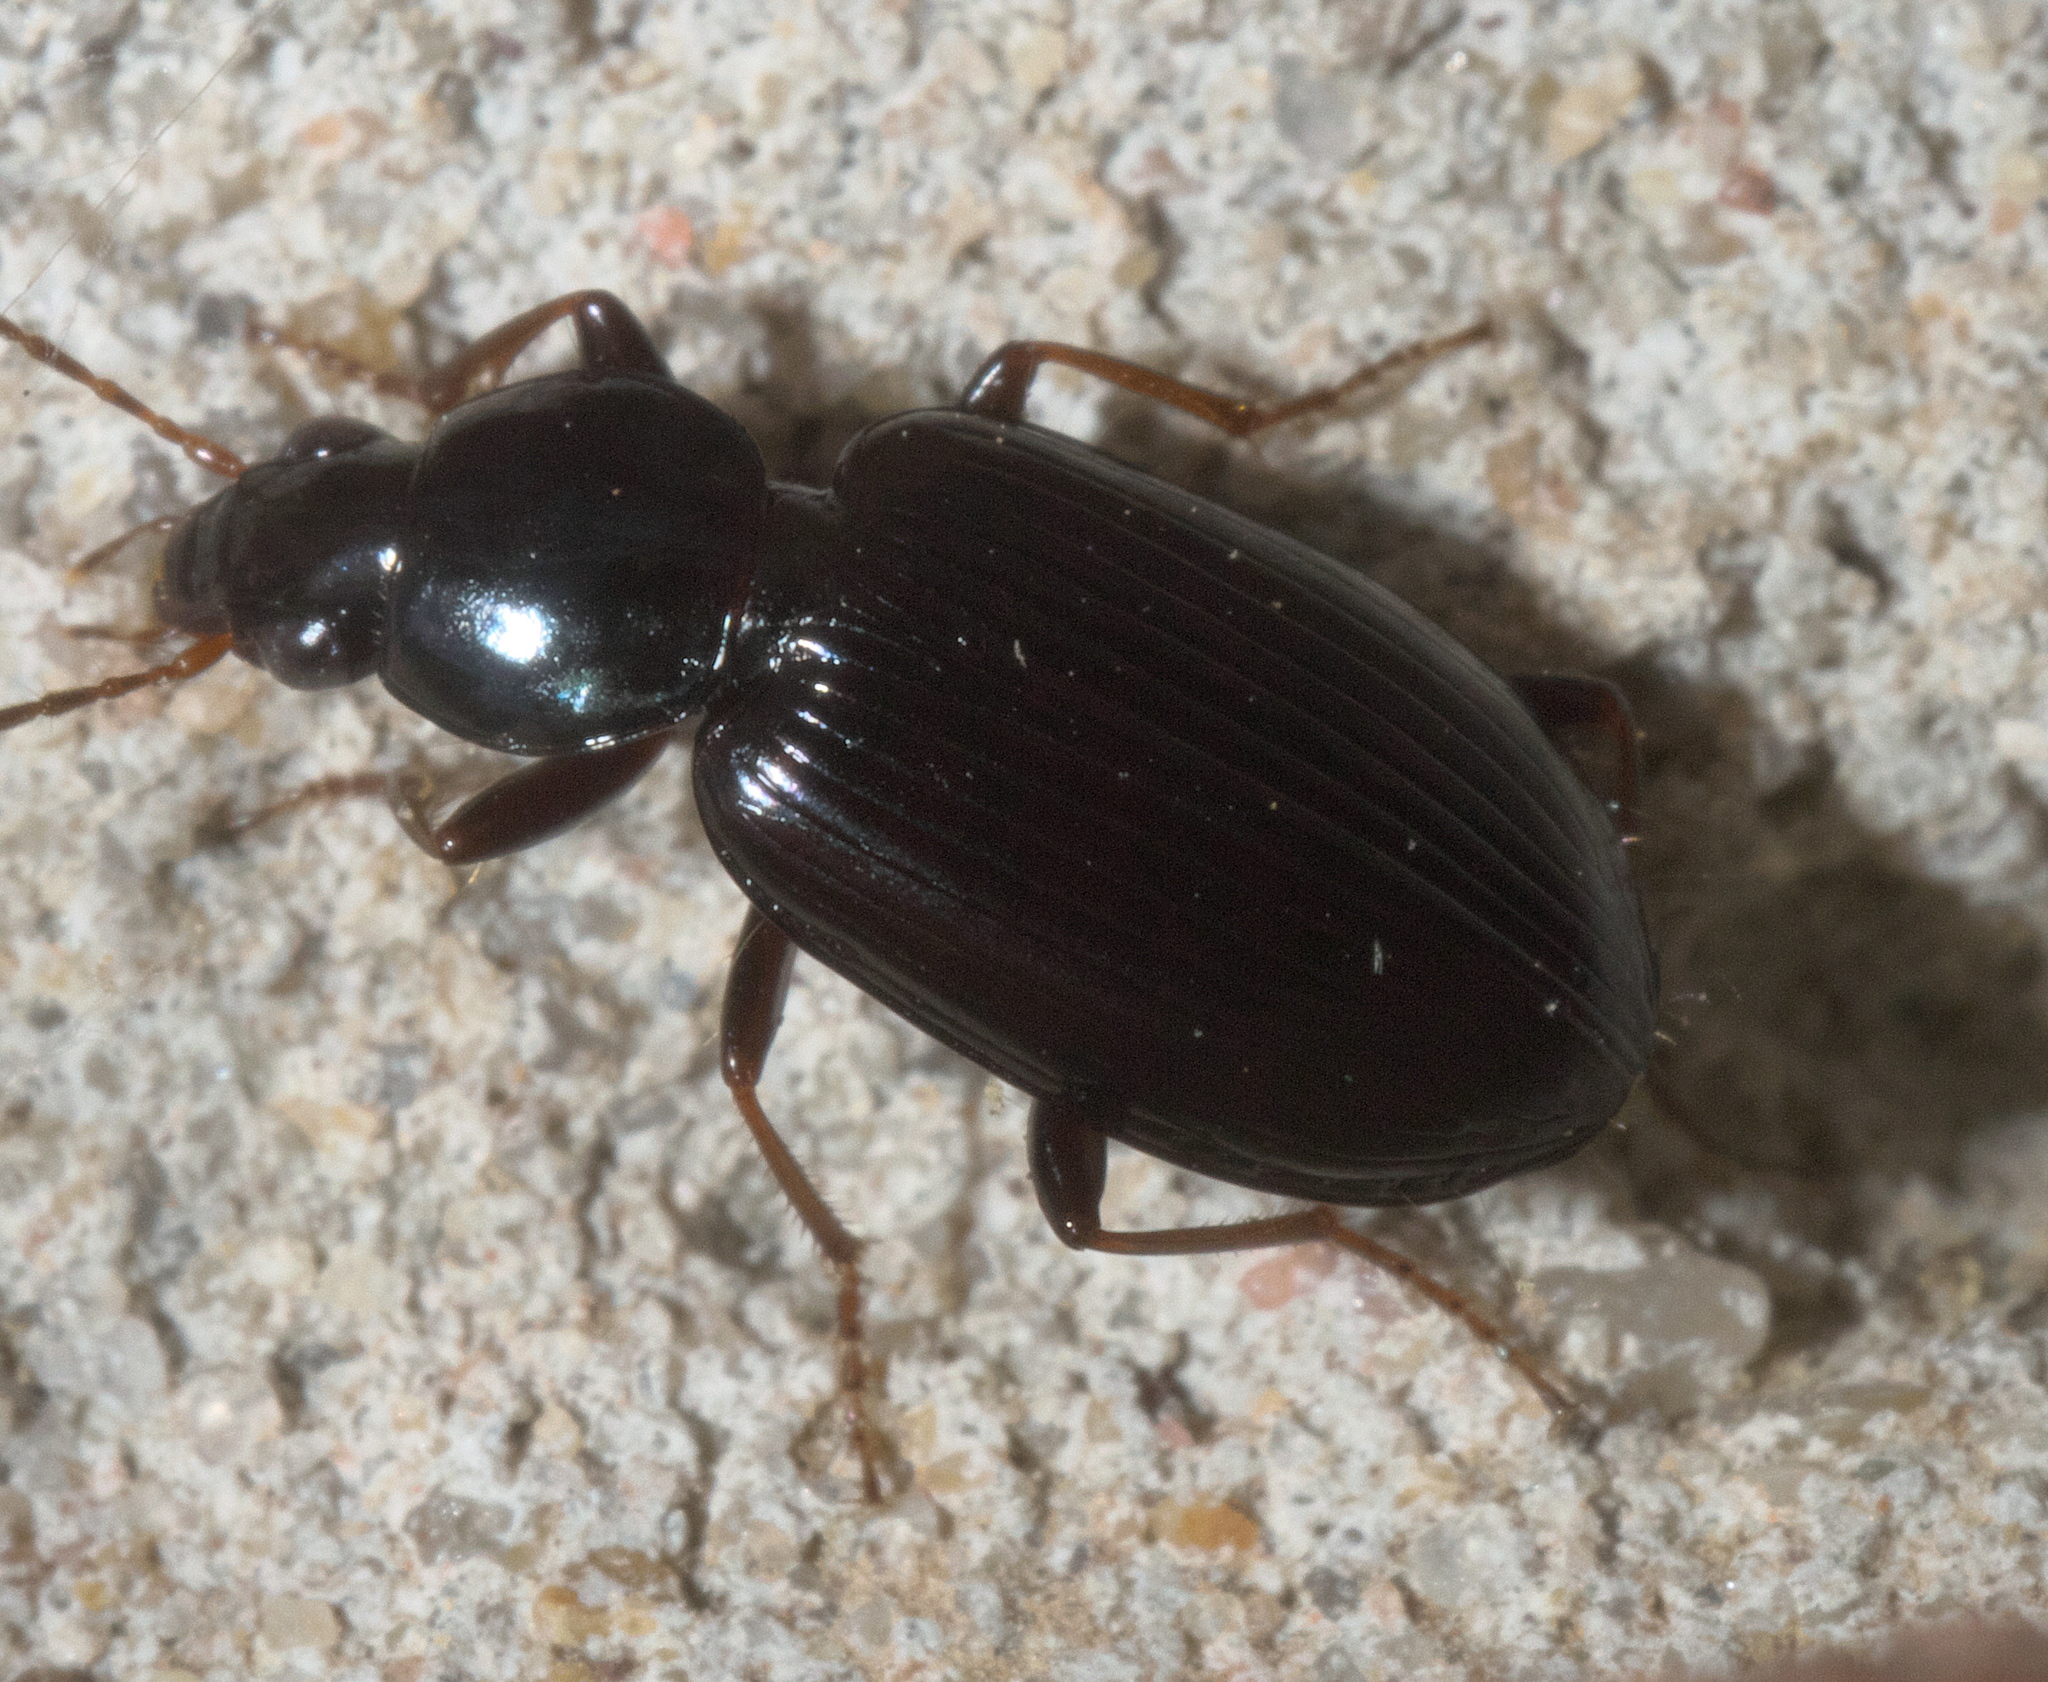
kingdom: Animalia
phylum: Arthropoda
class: Insecta
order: Coleoptera
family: Carabidae
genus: Agonum
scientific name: Agonum punctiforme
